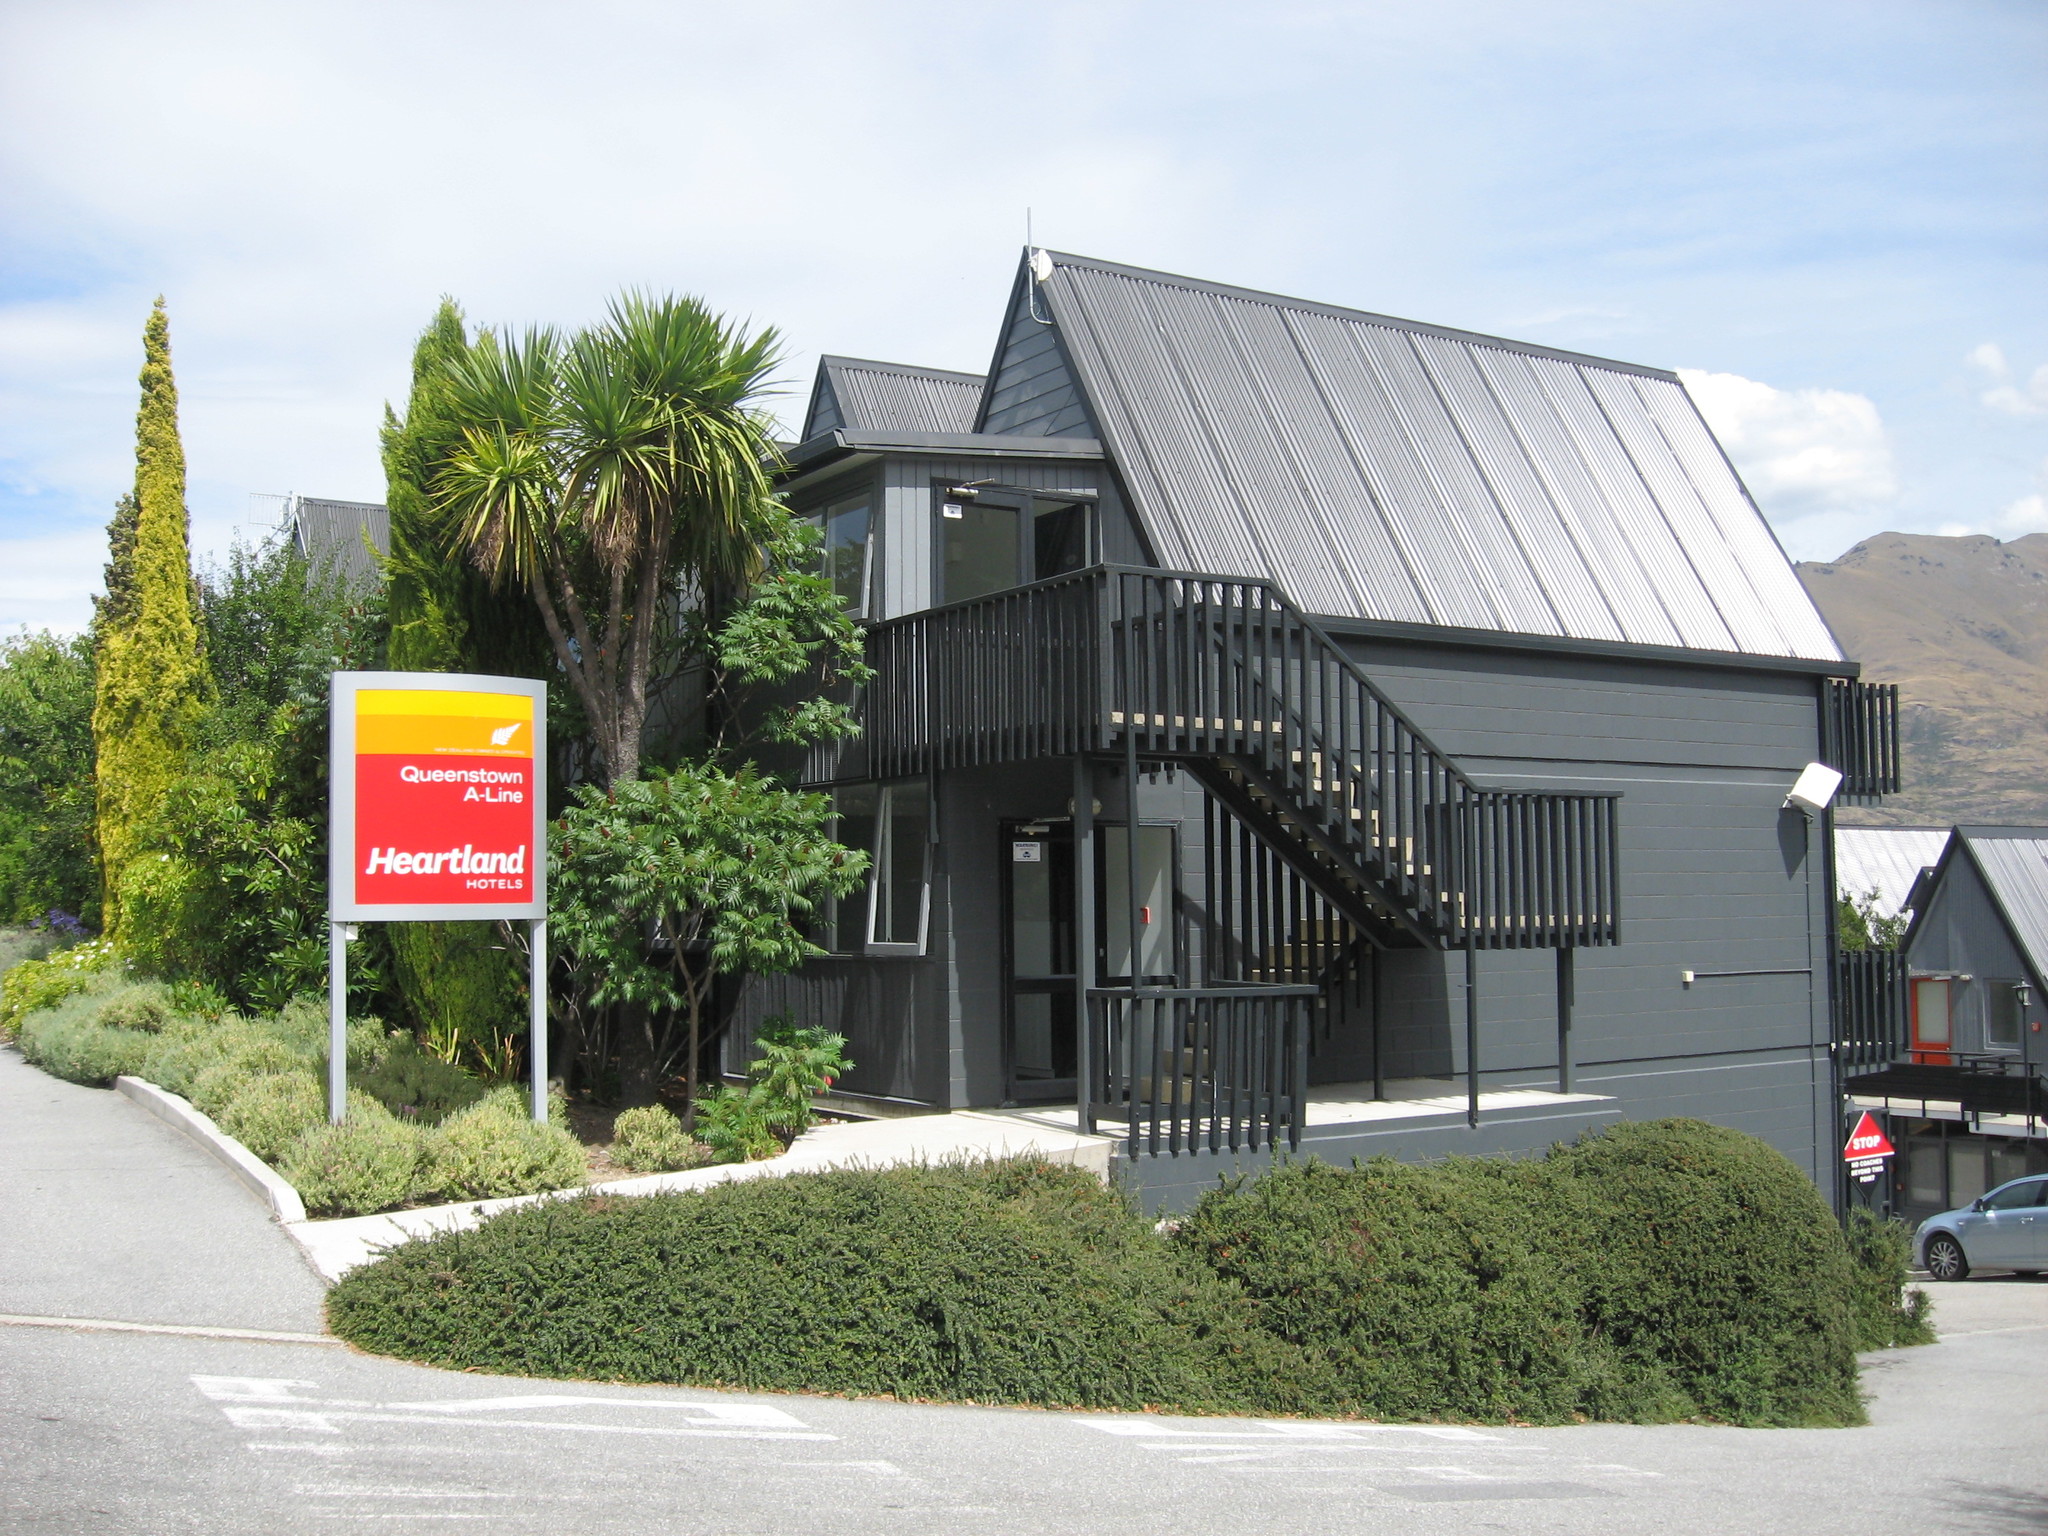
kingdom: Plantae
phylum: Tracheophyta
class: Liliopsida
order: Asparagales
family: Asparagaceae
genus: Cordyline
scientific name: Cordyline australis
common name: Cabbage-palm
